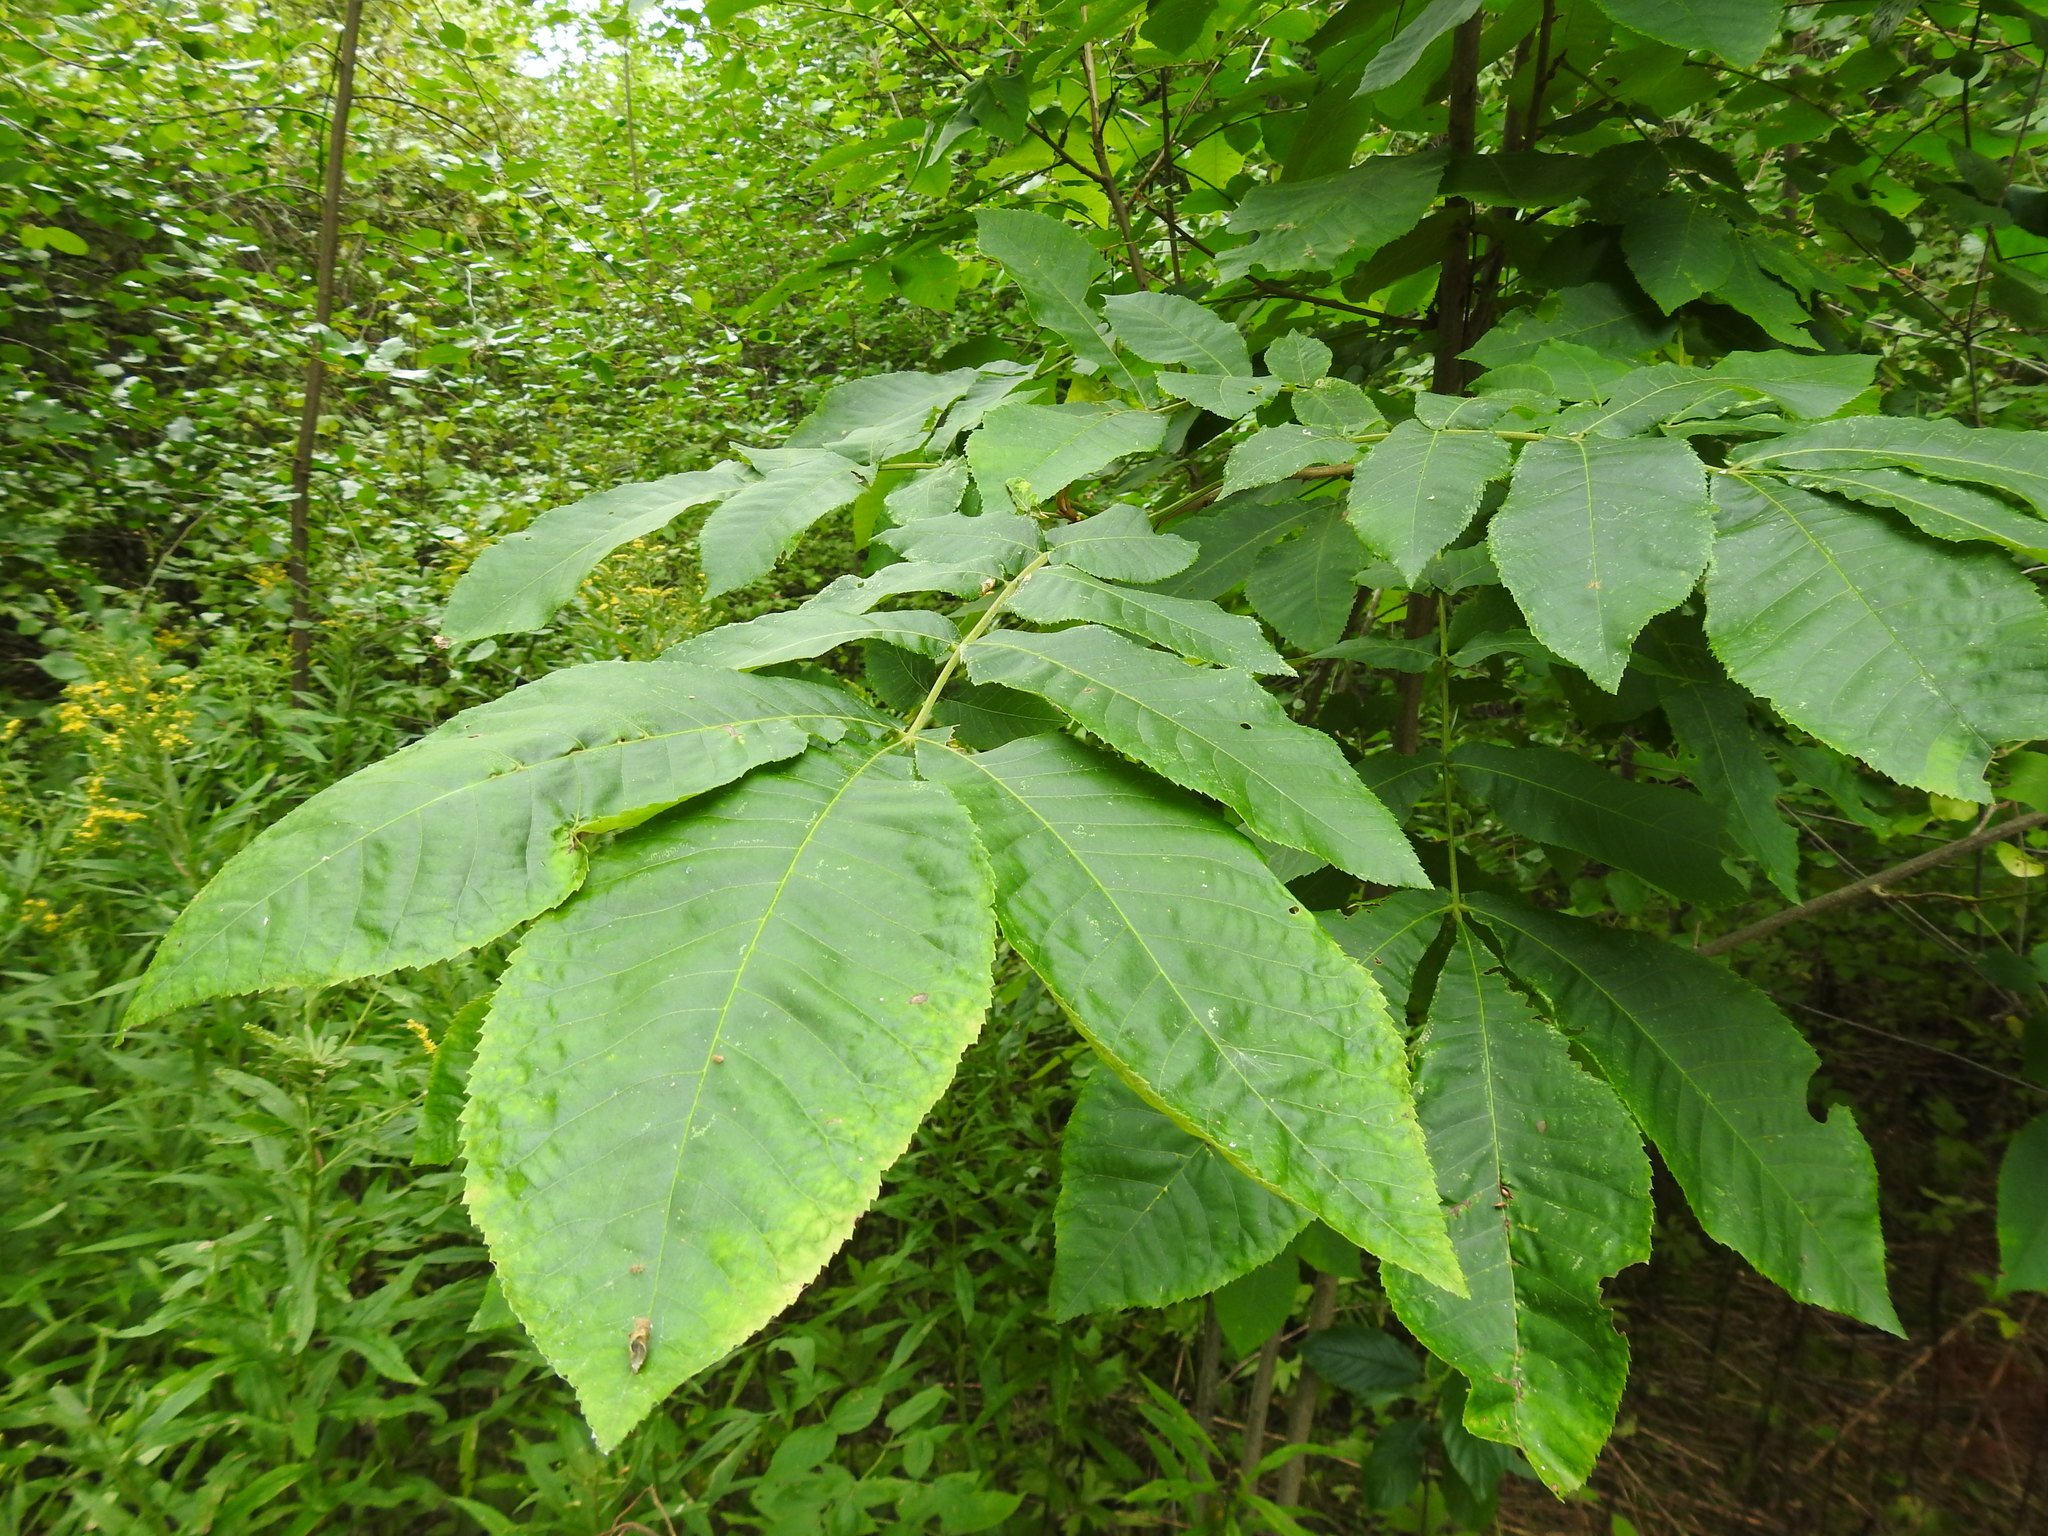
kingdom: Animalia
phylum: Arthropoda
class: Insecta
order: Diptera
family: Cecidomyiidae
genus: Caryomyia
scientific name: Caryomyia ansericollum
